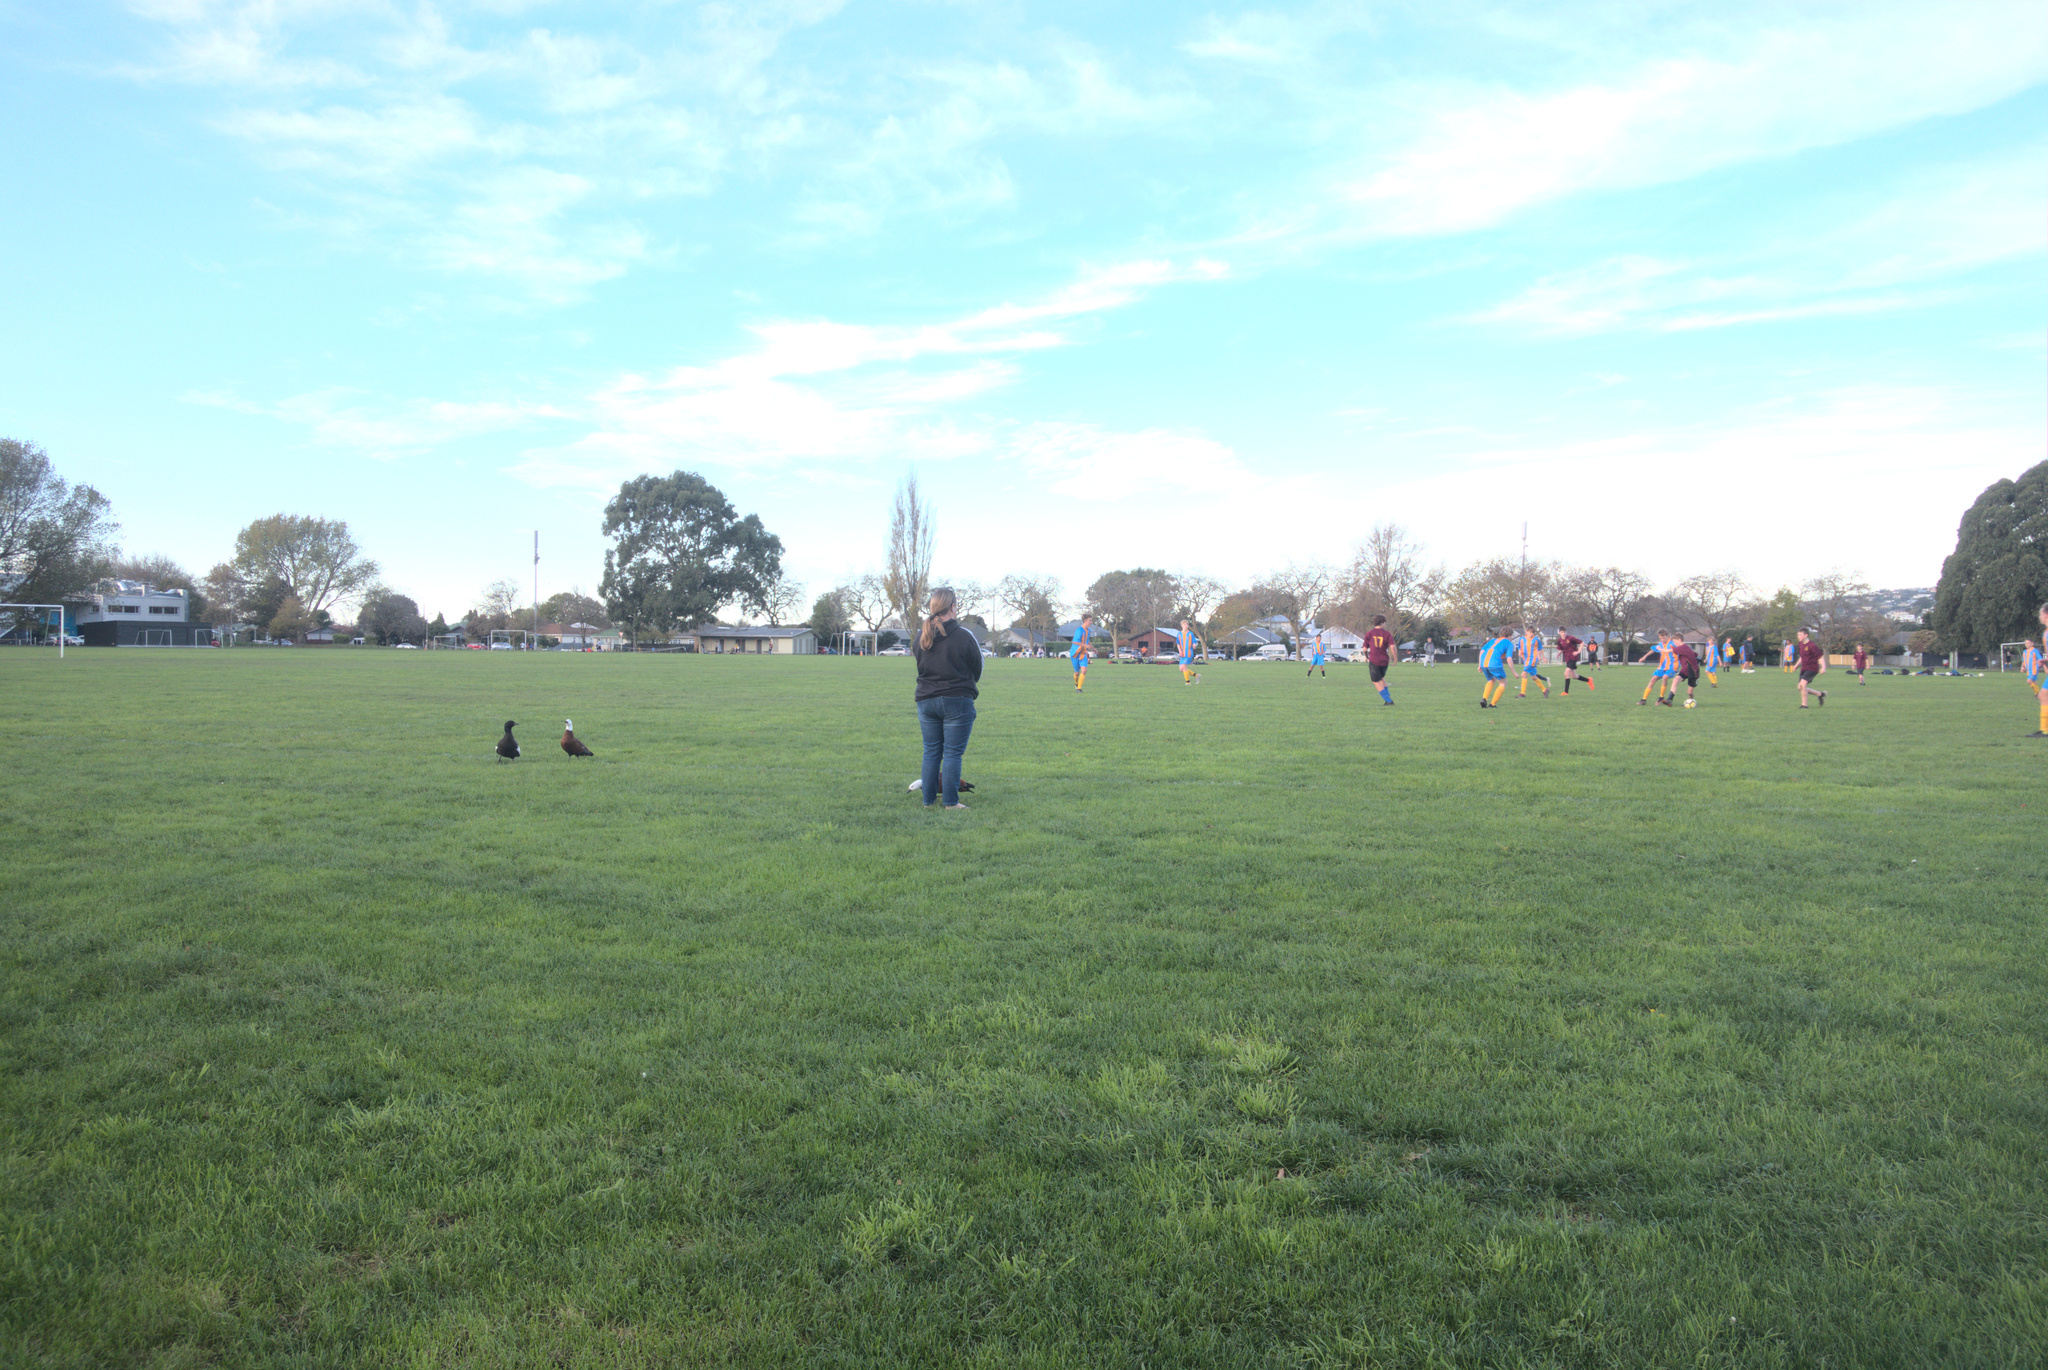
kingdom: Animalia
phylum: Chordata
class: Aves
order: Anseriformes
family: Anatidae
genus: Tadorna
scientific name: Tadorna variegata
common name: Paradise shelduck
